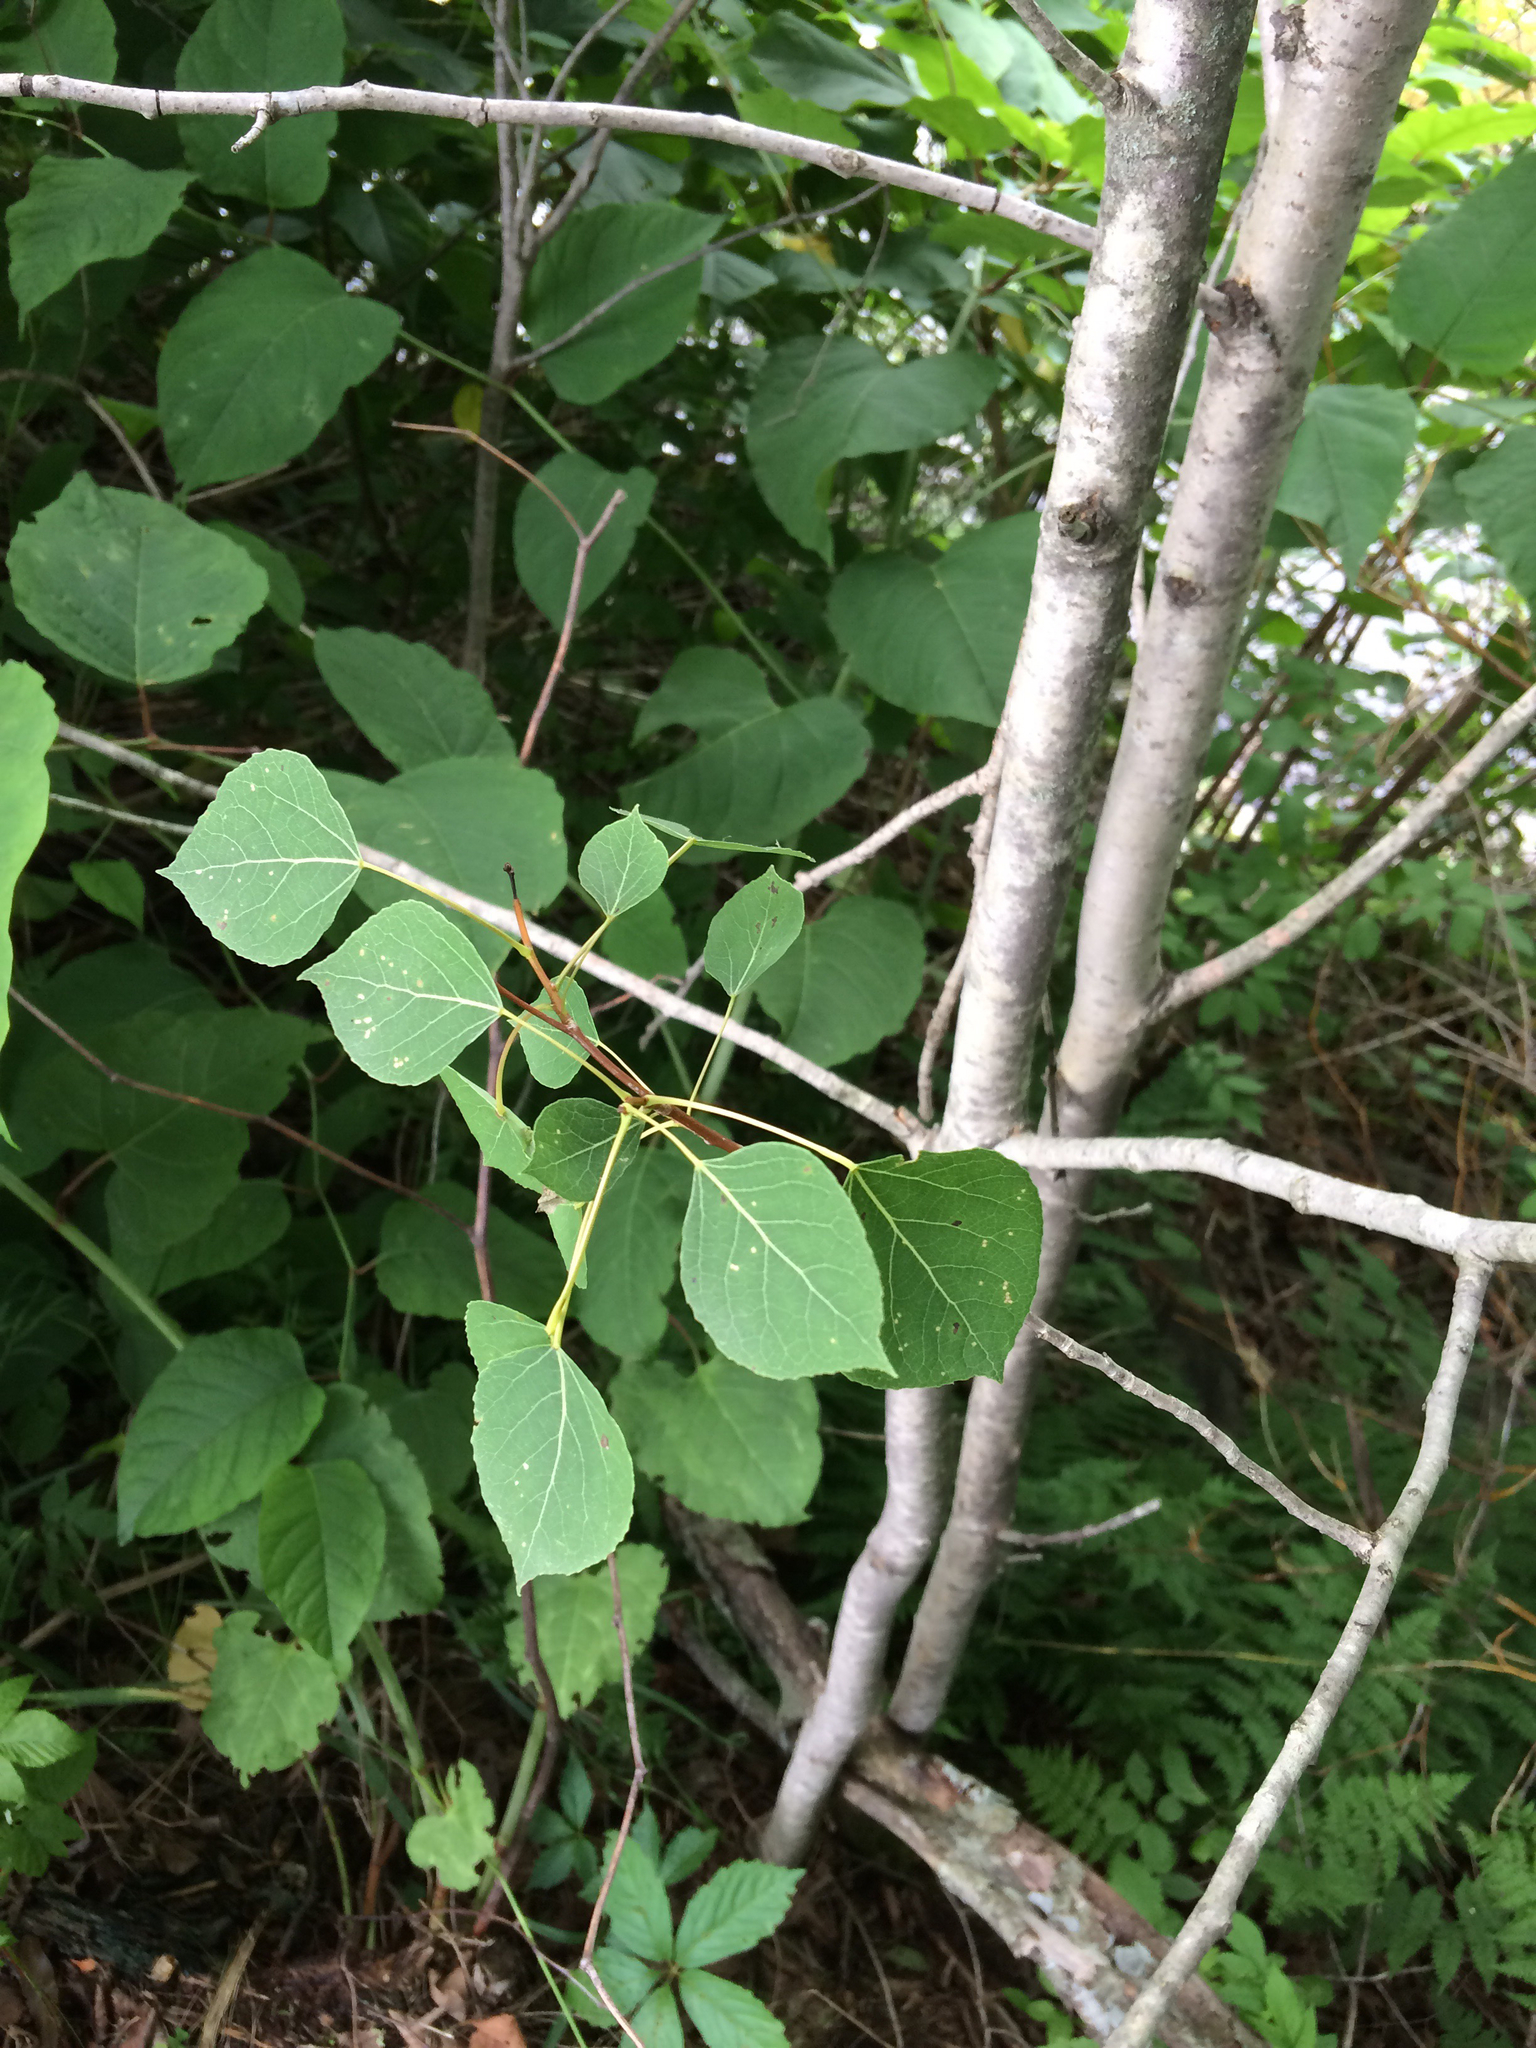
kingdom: Plantae
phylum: Tracheophyta
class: Magnoliopsida
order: Malpighiales
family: Salicaceae
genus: Populus
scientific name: Populus tremuloides
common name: Quaking aspen
